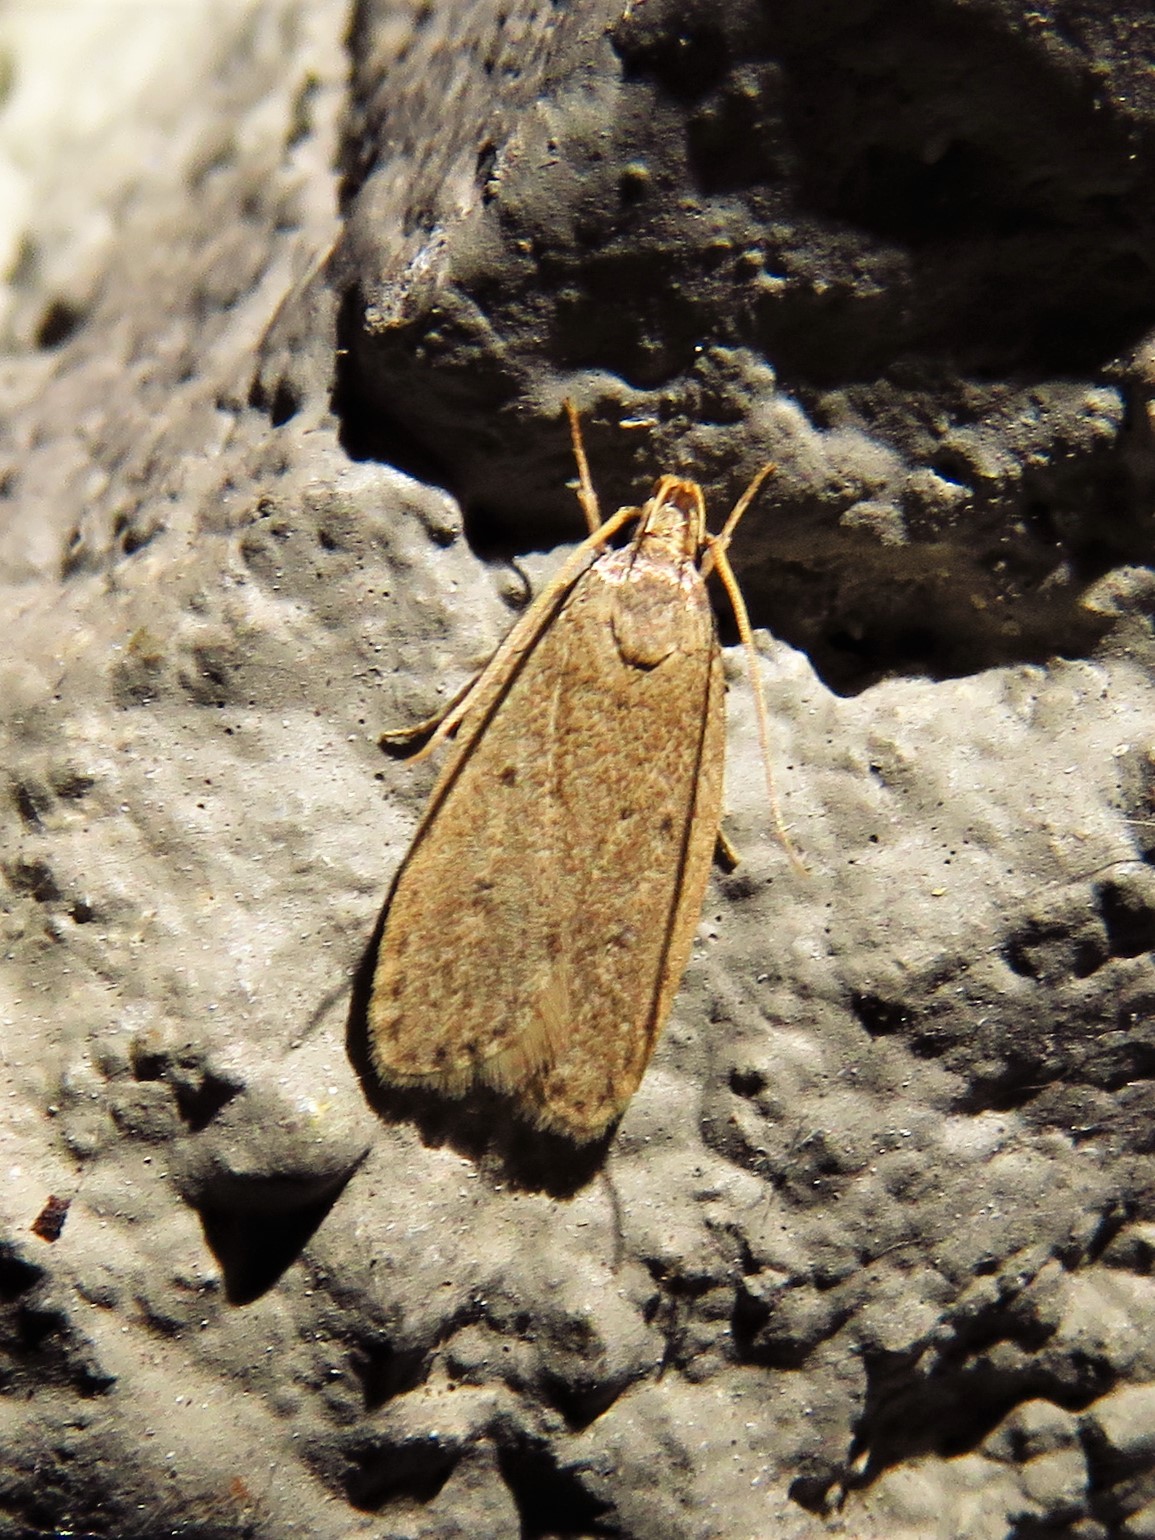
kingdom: Animalia
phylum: Arthropoda
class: Insecta
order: Lepidoptera
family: Autostichidae
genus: Autosticha
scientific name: Autosticha kyotensis
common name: Kyoto moth
